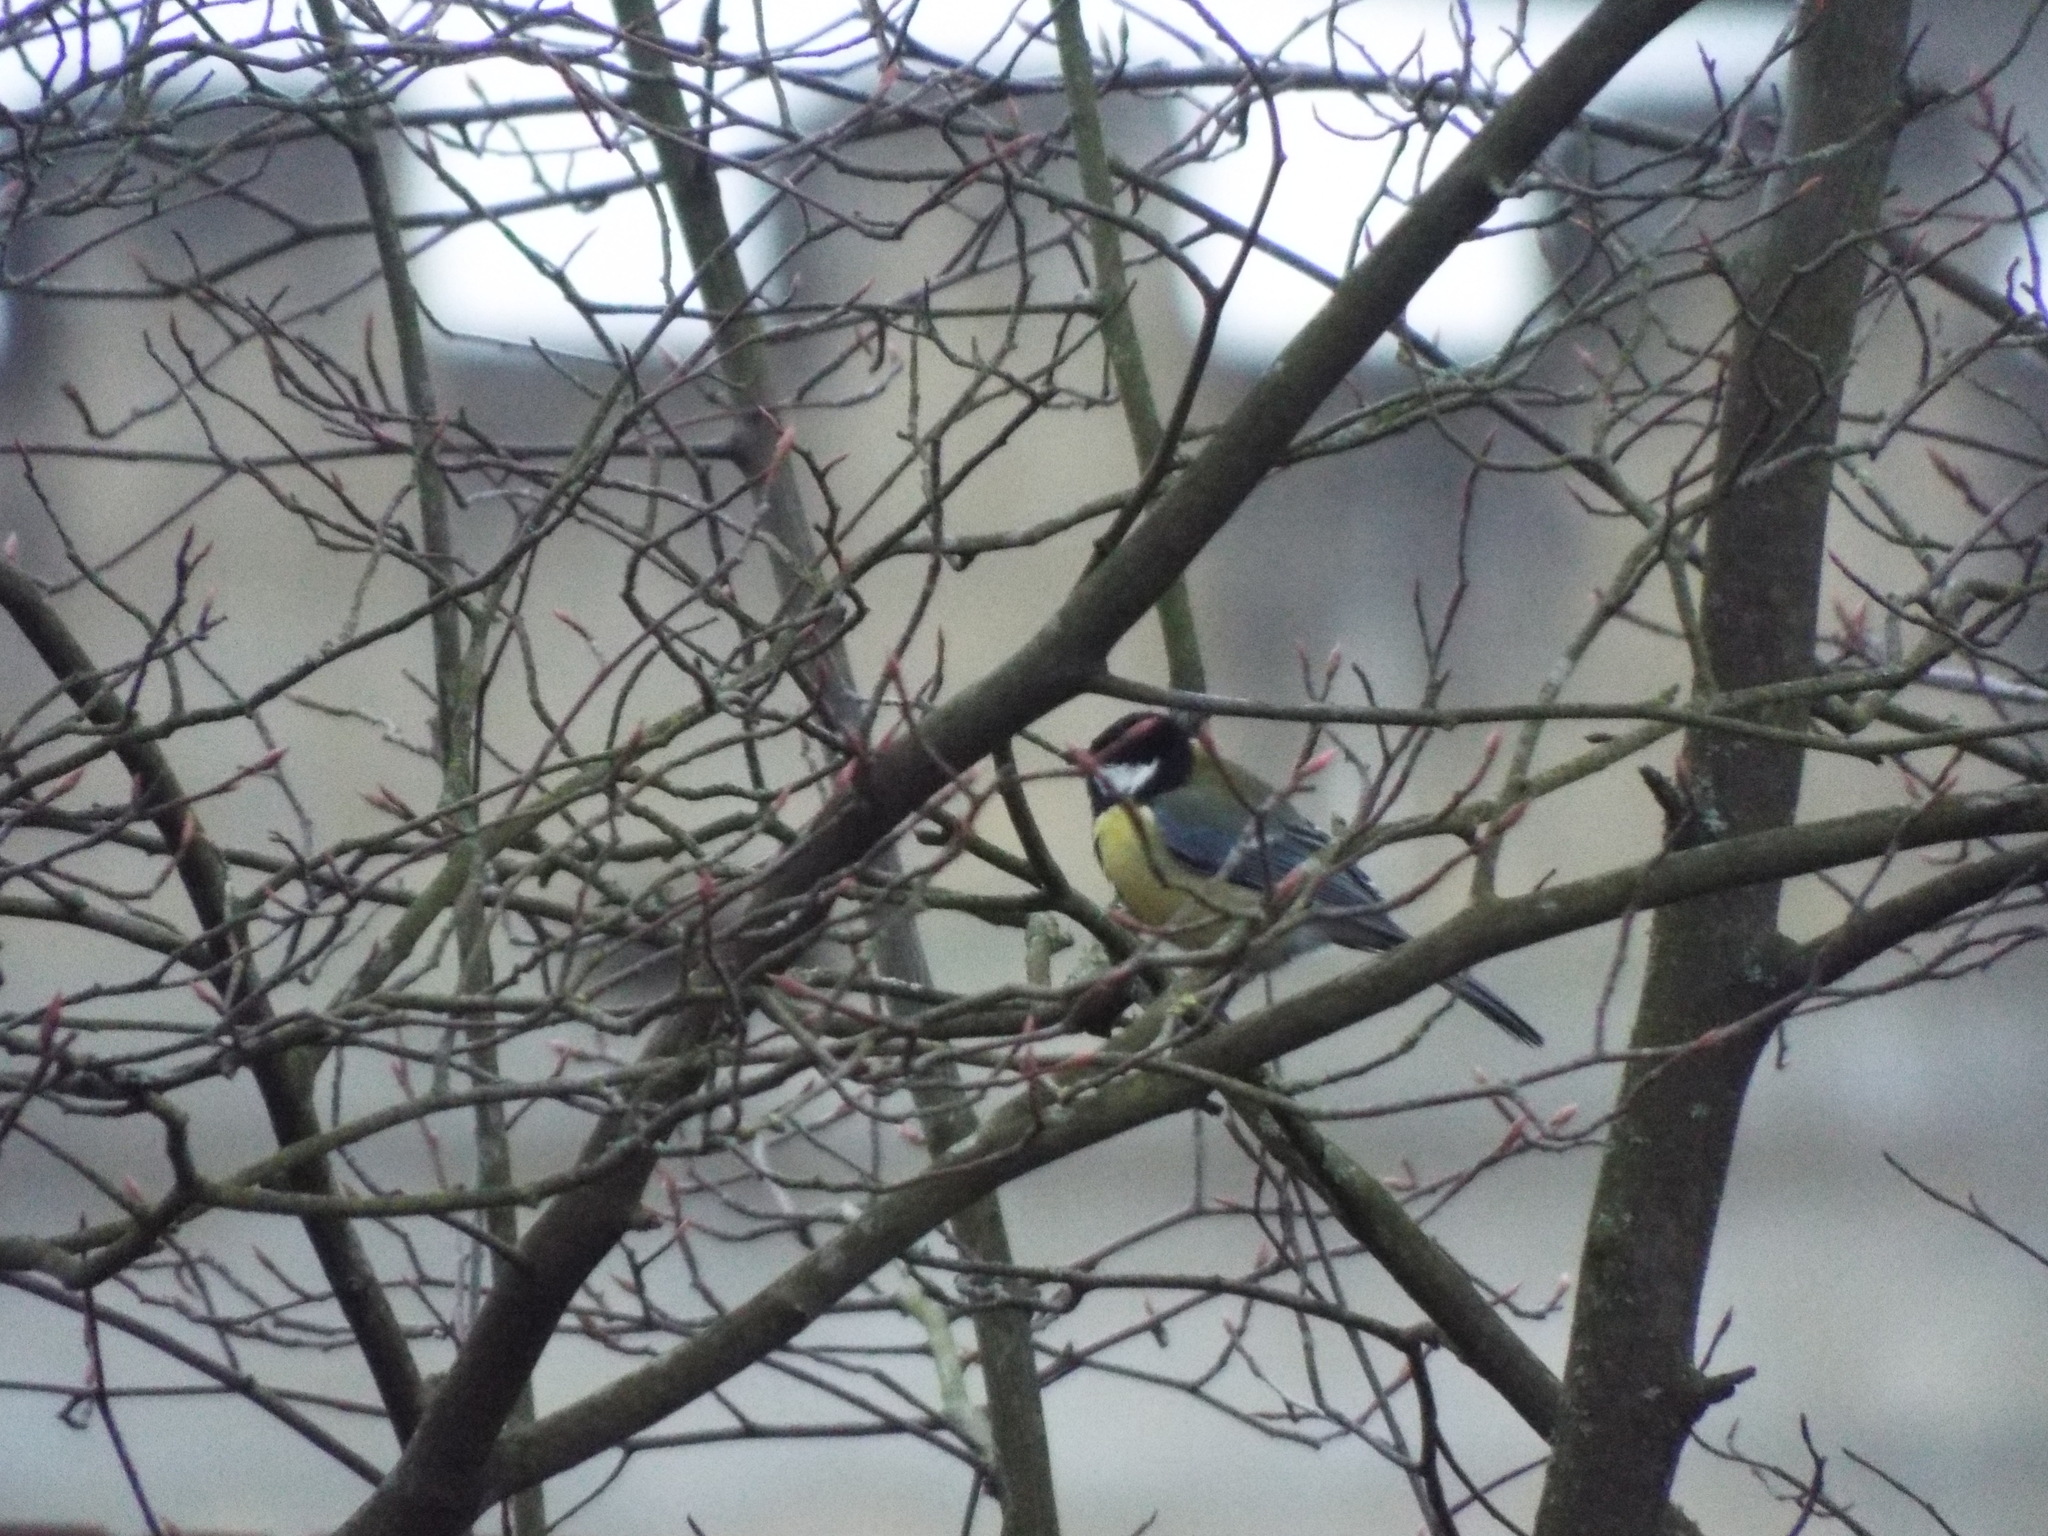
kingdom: Animalia
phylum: Chordata
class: Aves
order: Passeriformes
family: Paridae
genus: Parus
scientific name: Parus major
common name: Great tit
